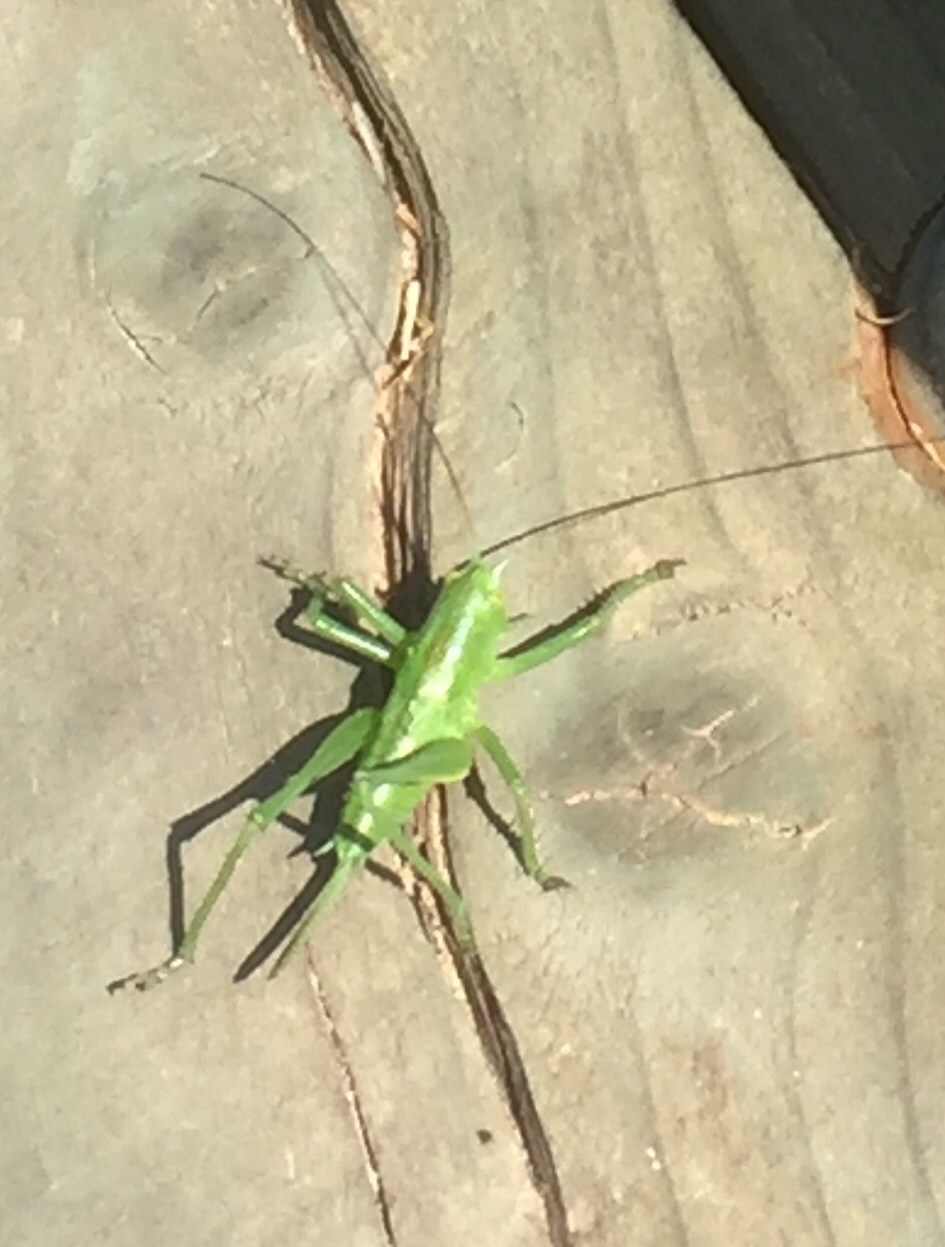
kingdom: Animalia
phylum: Arthropoda
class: Insecta
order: Orthoptera
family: Tettigoniidae
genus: Tettigonia
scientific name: Tettigonia
